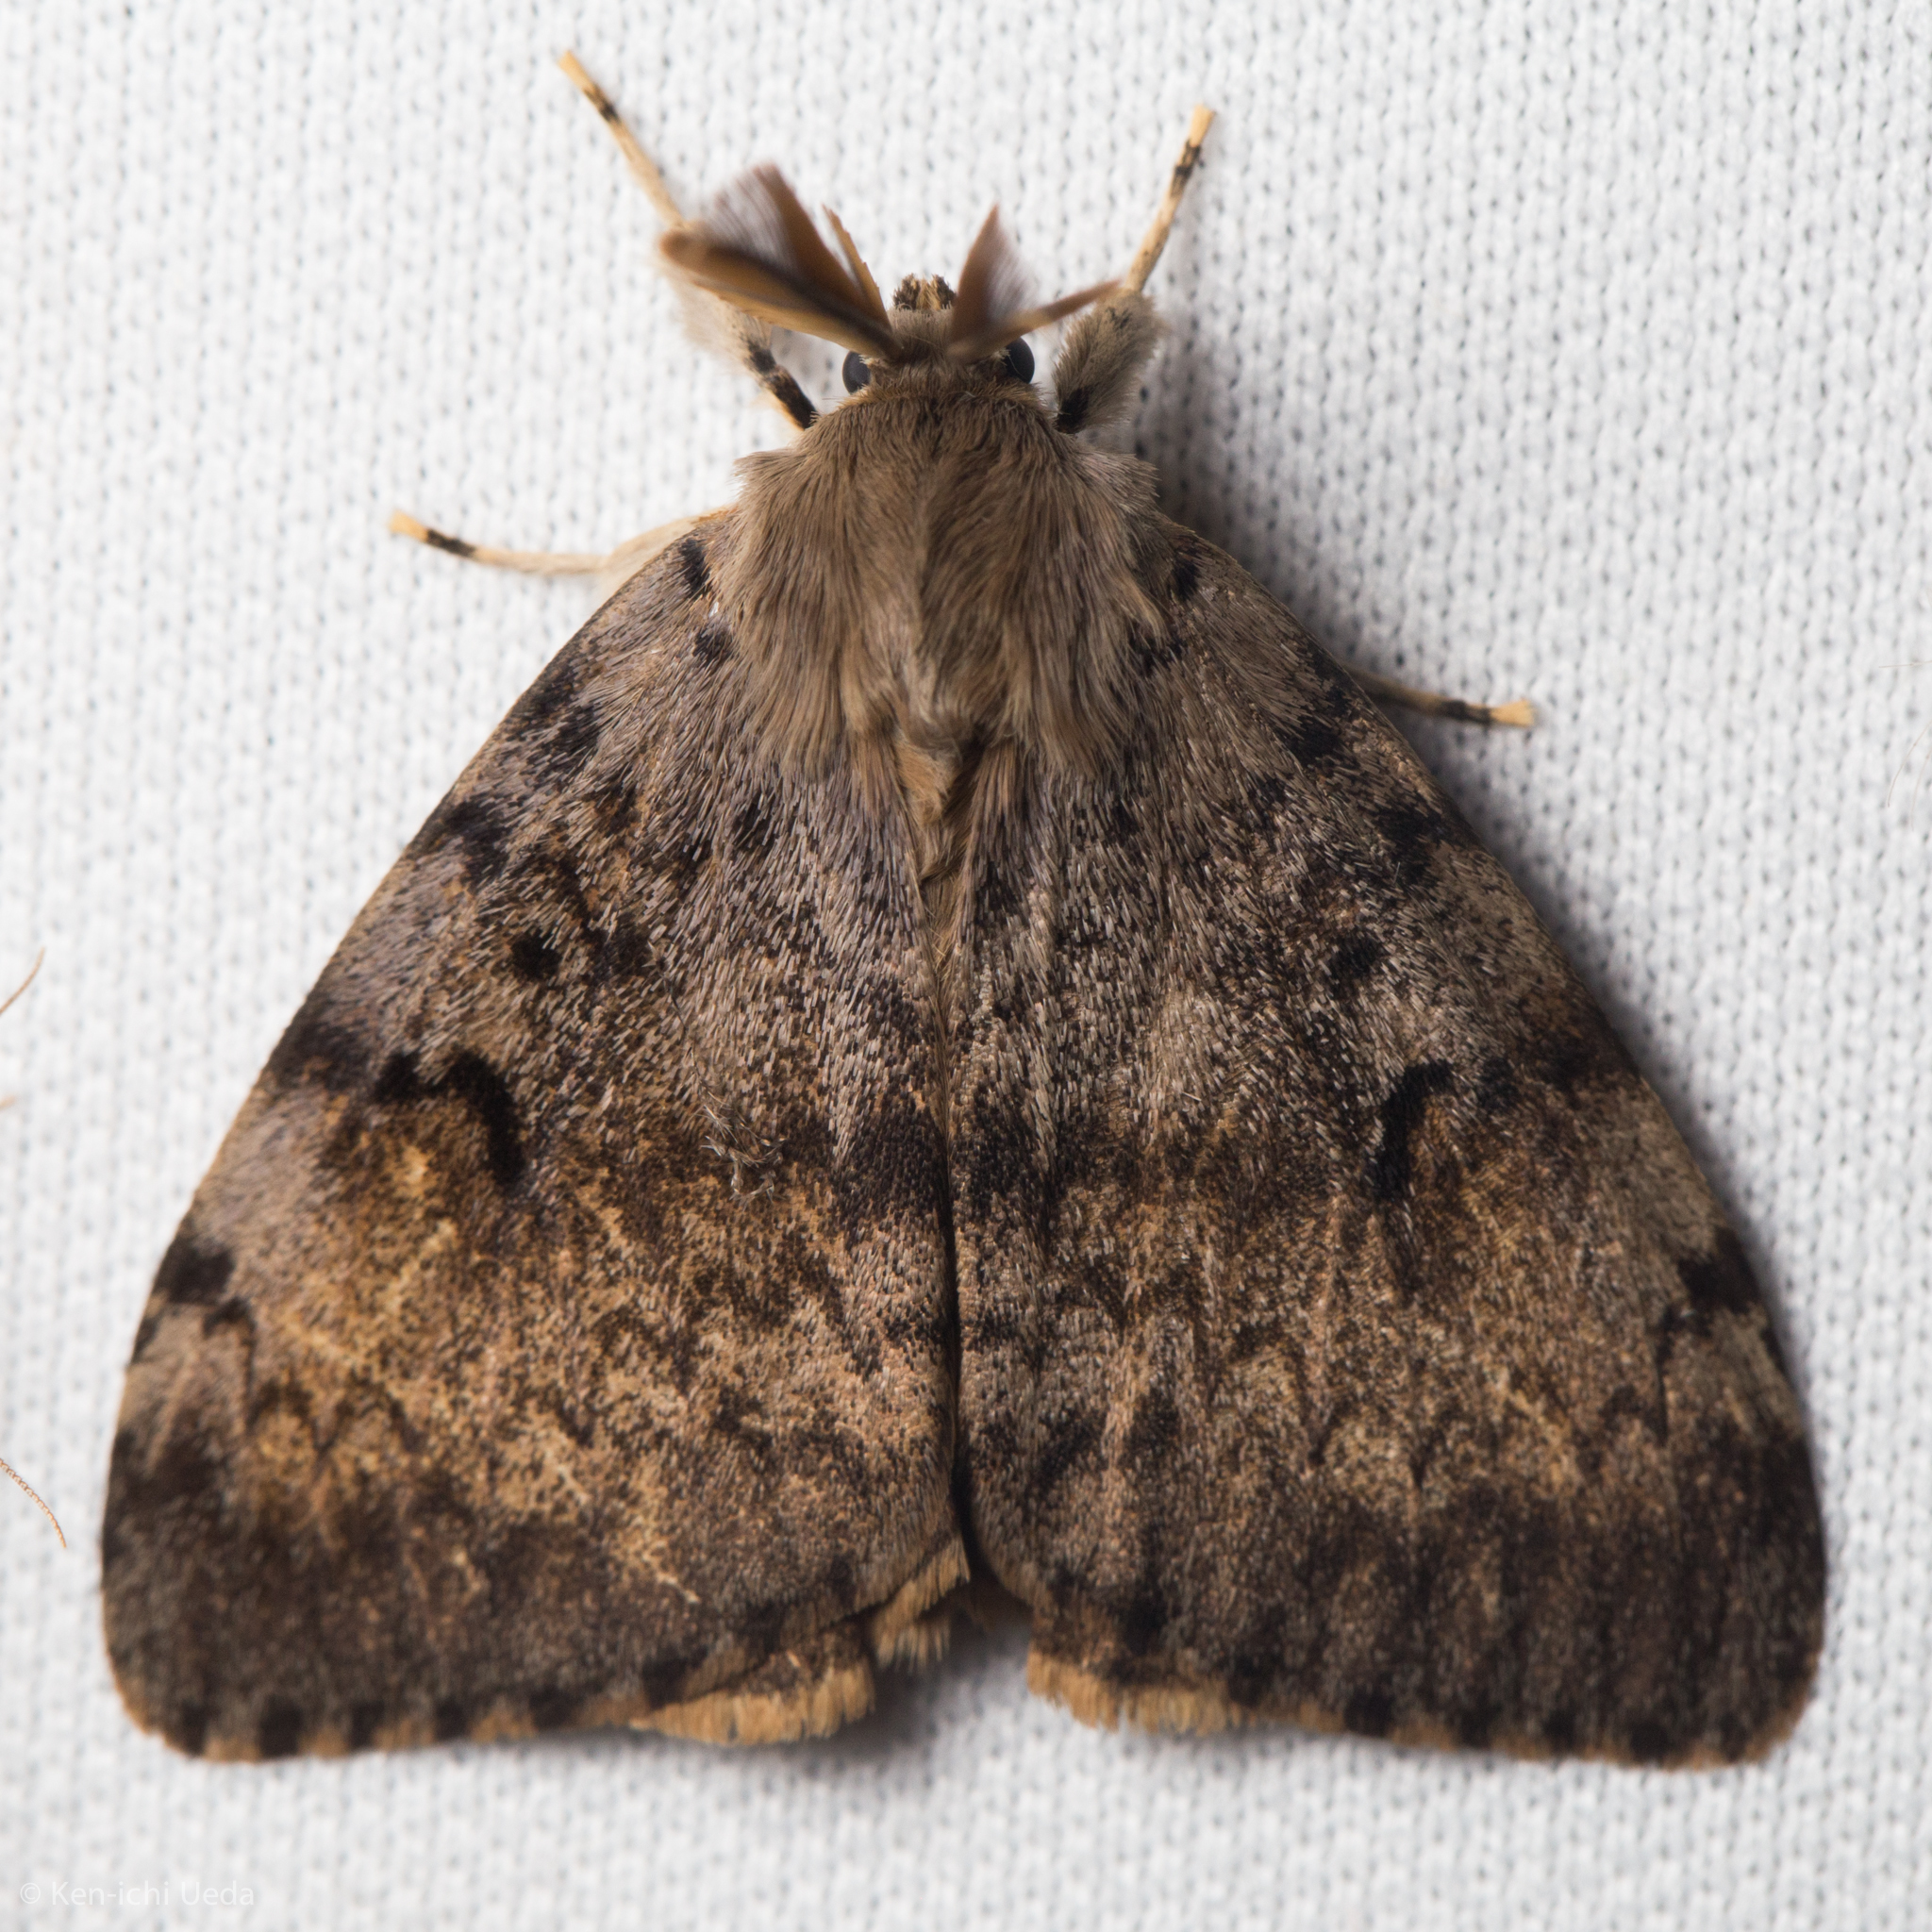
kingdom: Animalia
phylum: Arthropoda
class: Insecta
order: Lepidoptera
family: Erebidae
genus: Lymantria
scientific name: Lymantria dispar
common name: Gypsy moth
